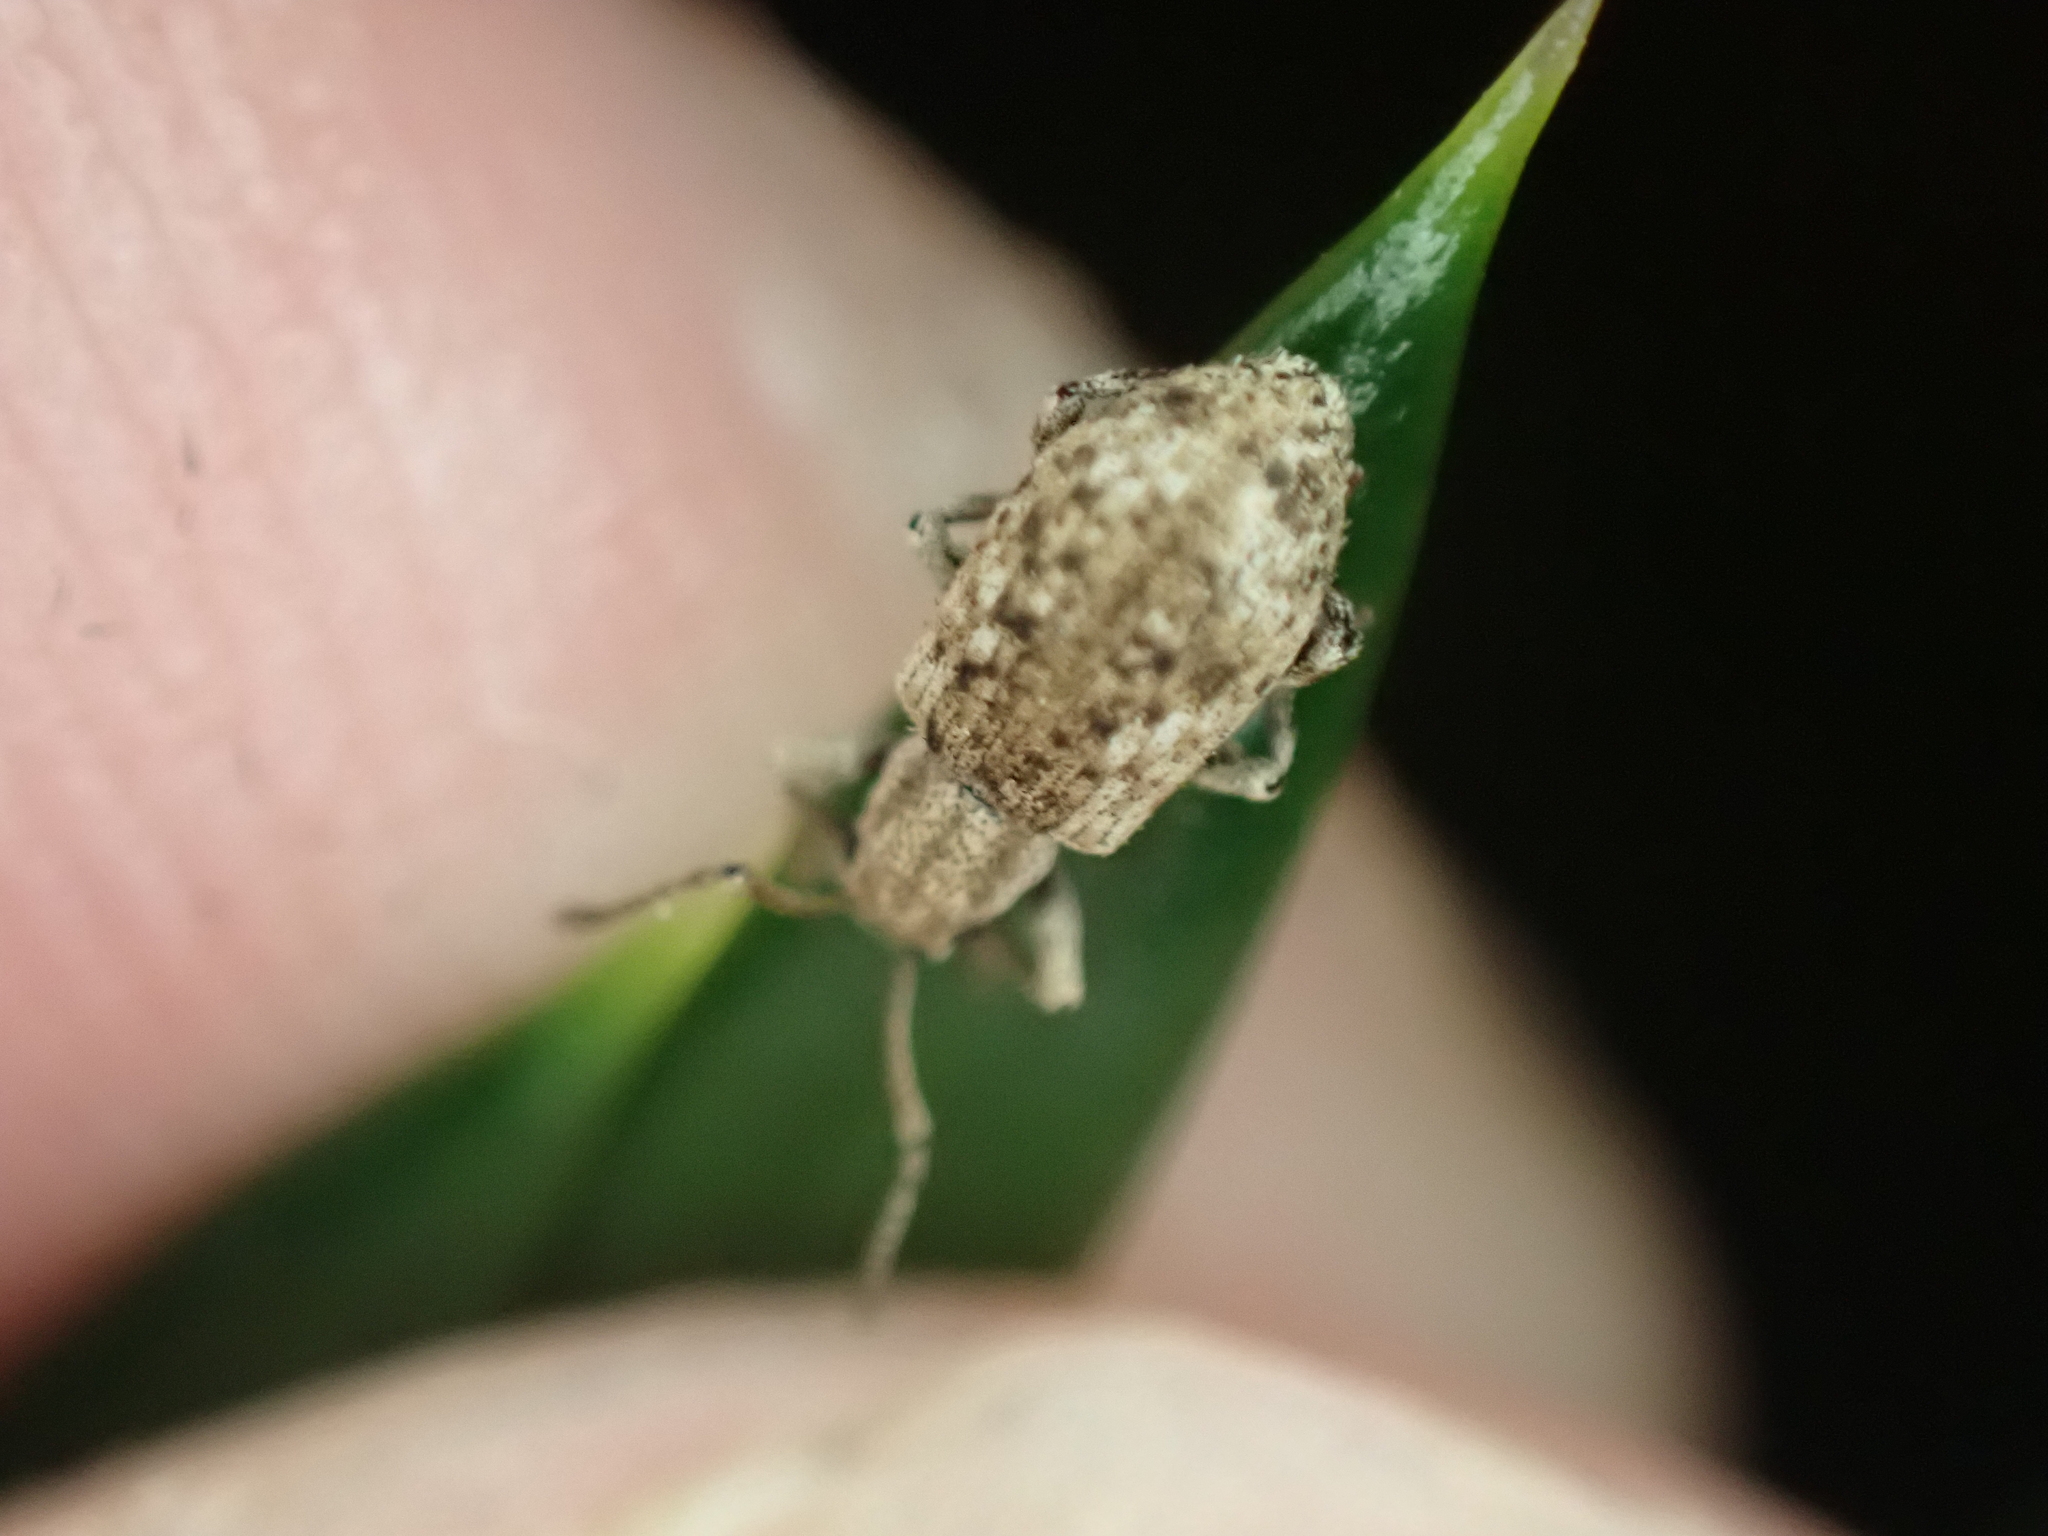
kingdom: Animalia
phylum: Arthropoda
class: Insecta
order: Coleoptera
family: Curculionidae
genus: Pseudoedophrys
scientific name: Pseudoedophrys hilleri
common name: Weevil
